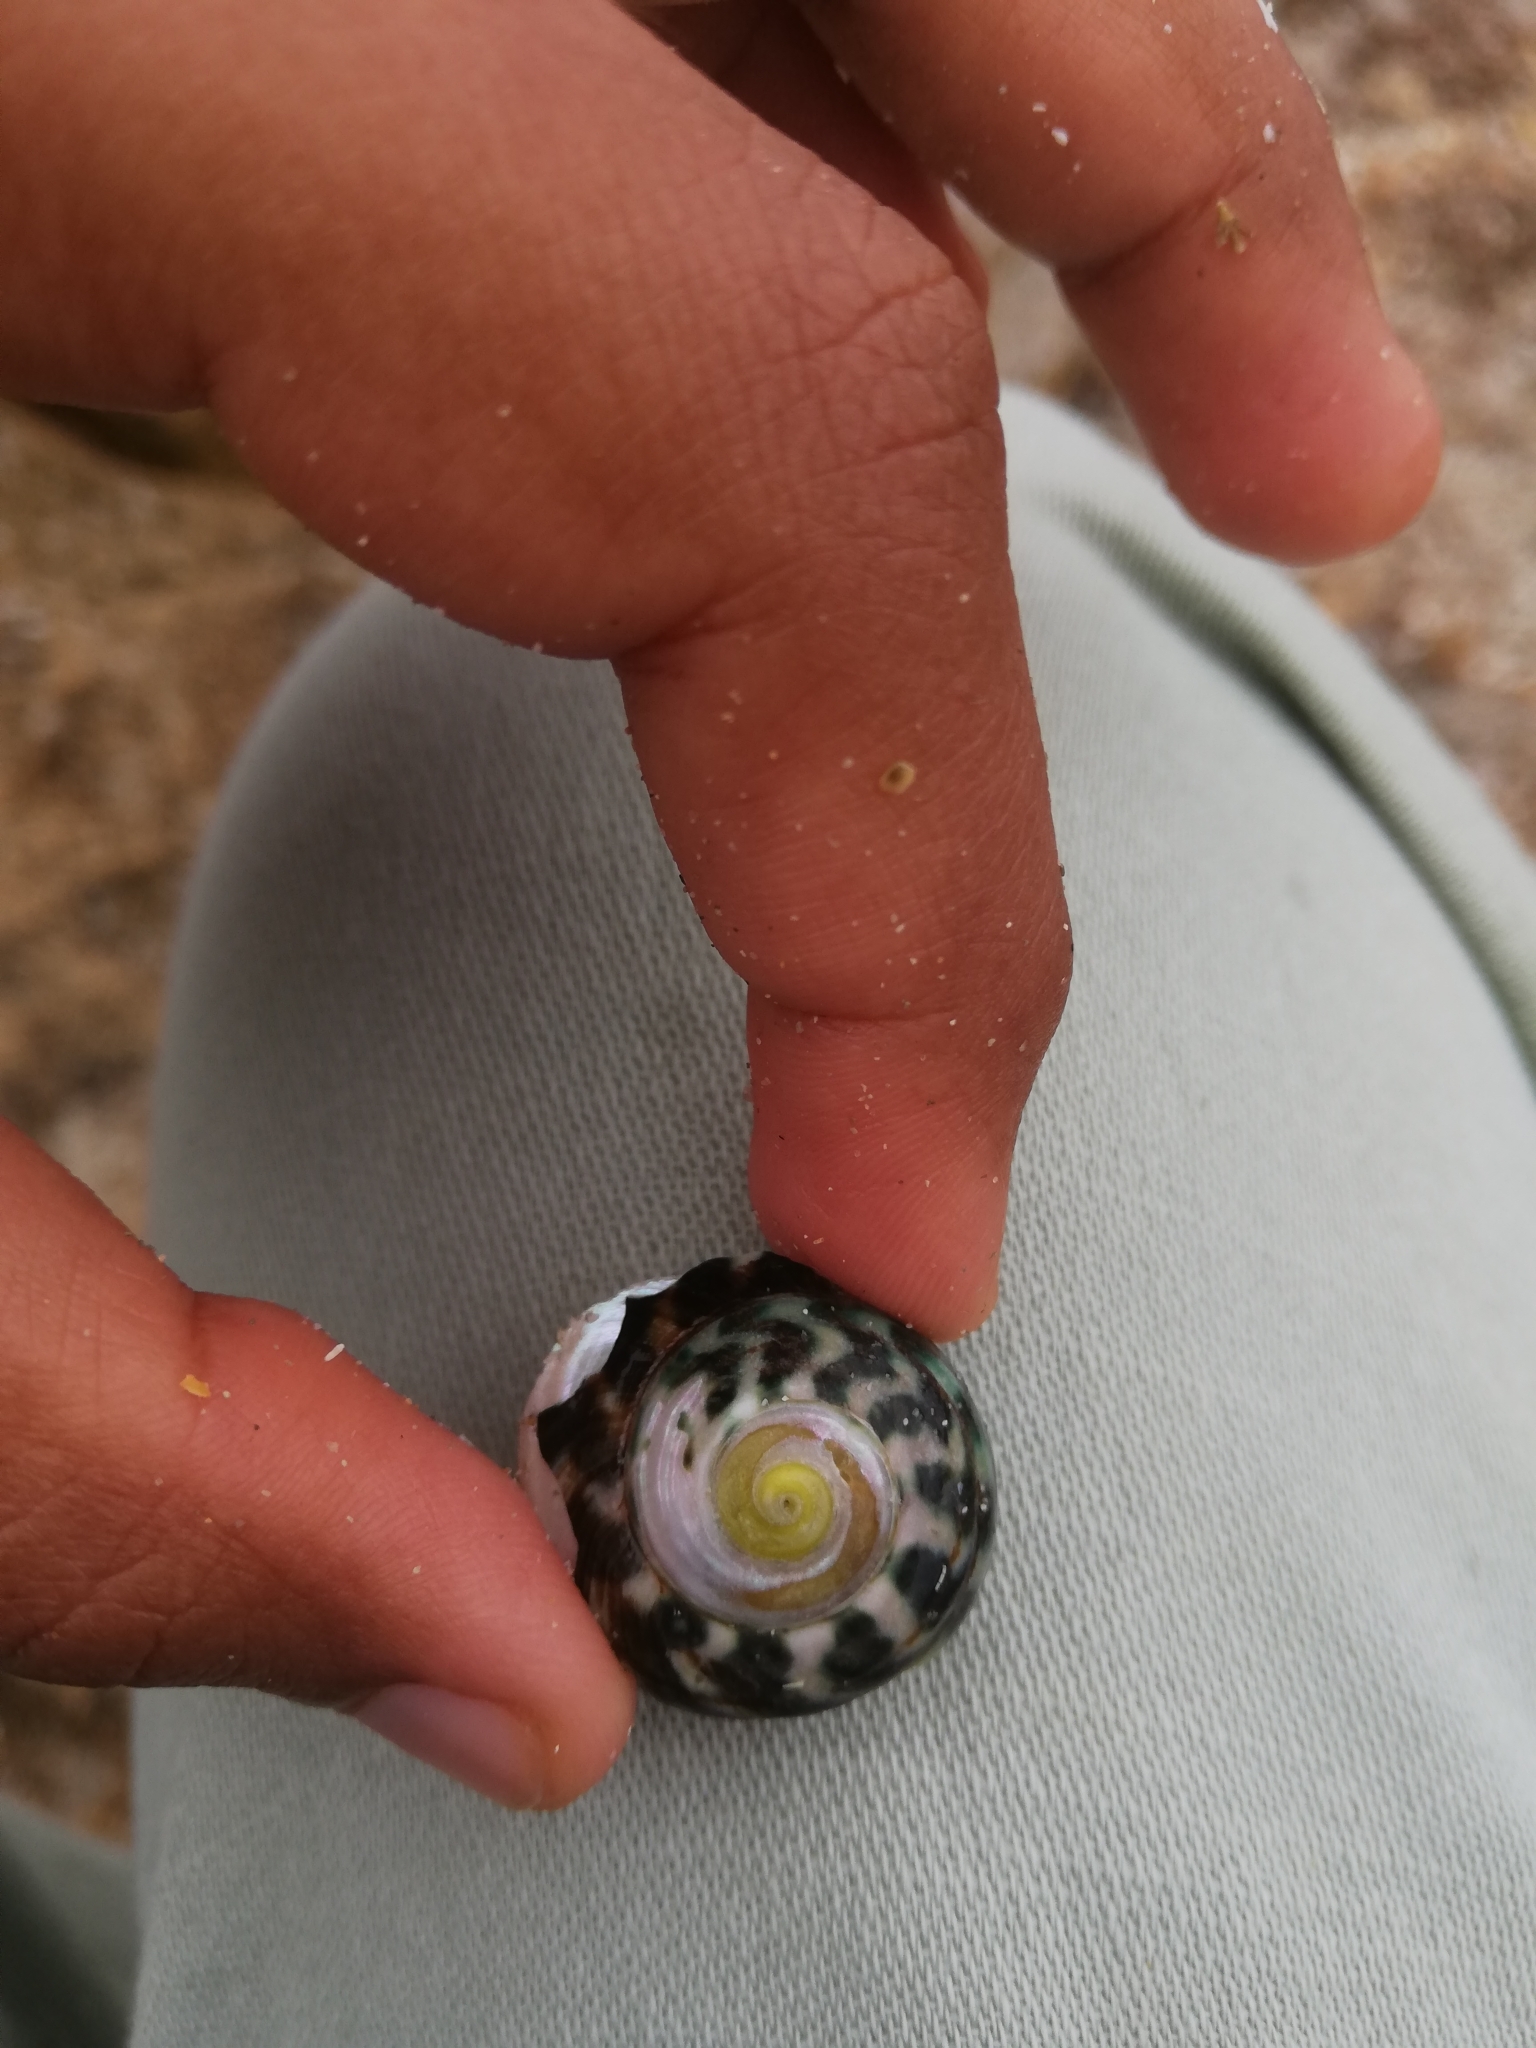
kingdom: Animalia
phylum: Mollusca
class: Gastropoda
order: Trochida
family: Turbinidae
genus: Lunella
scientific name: Lunella undulata
